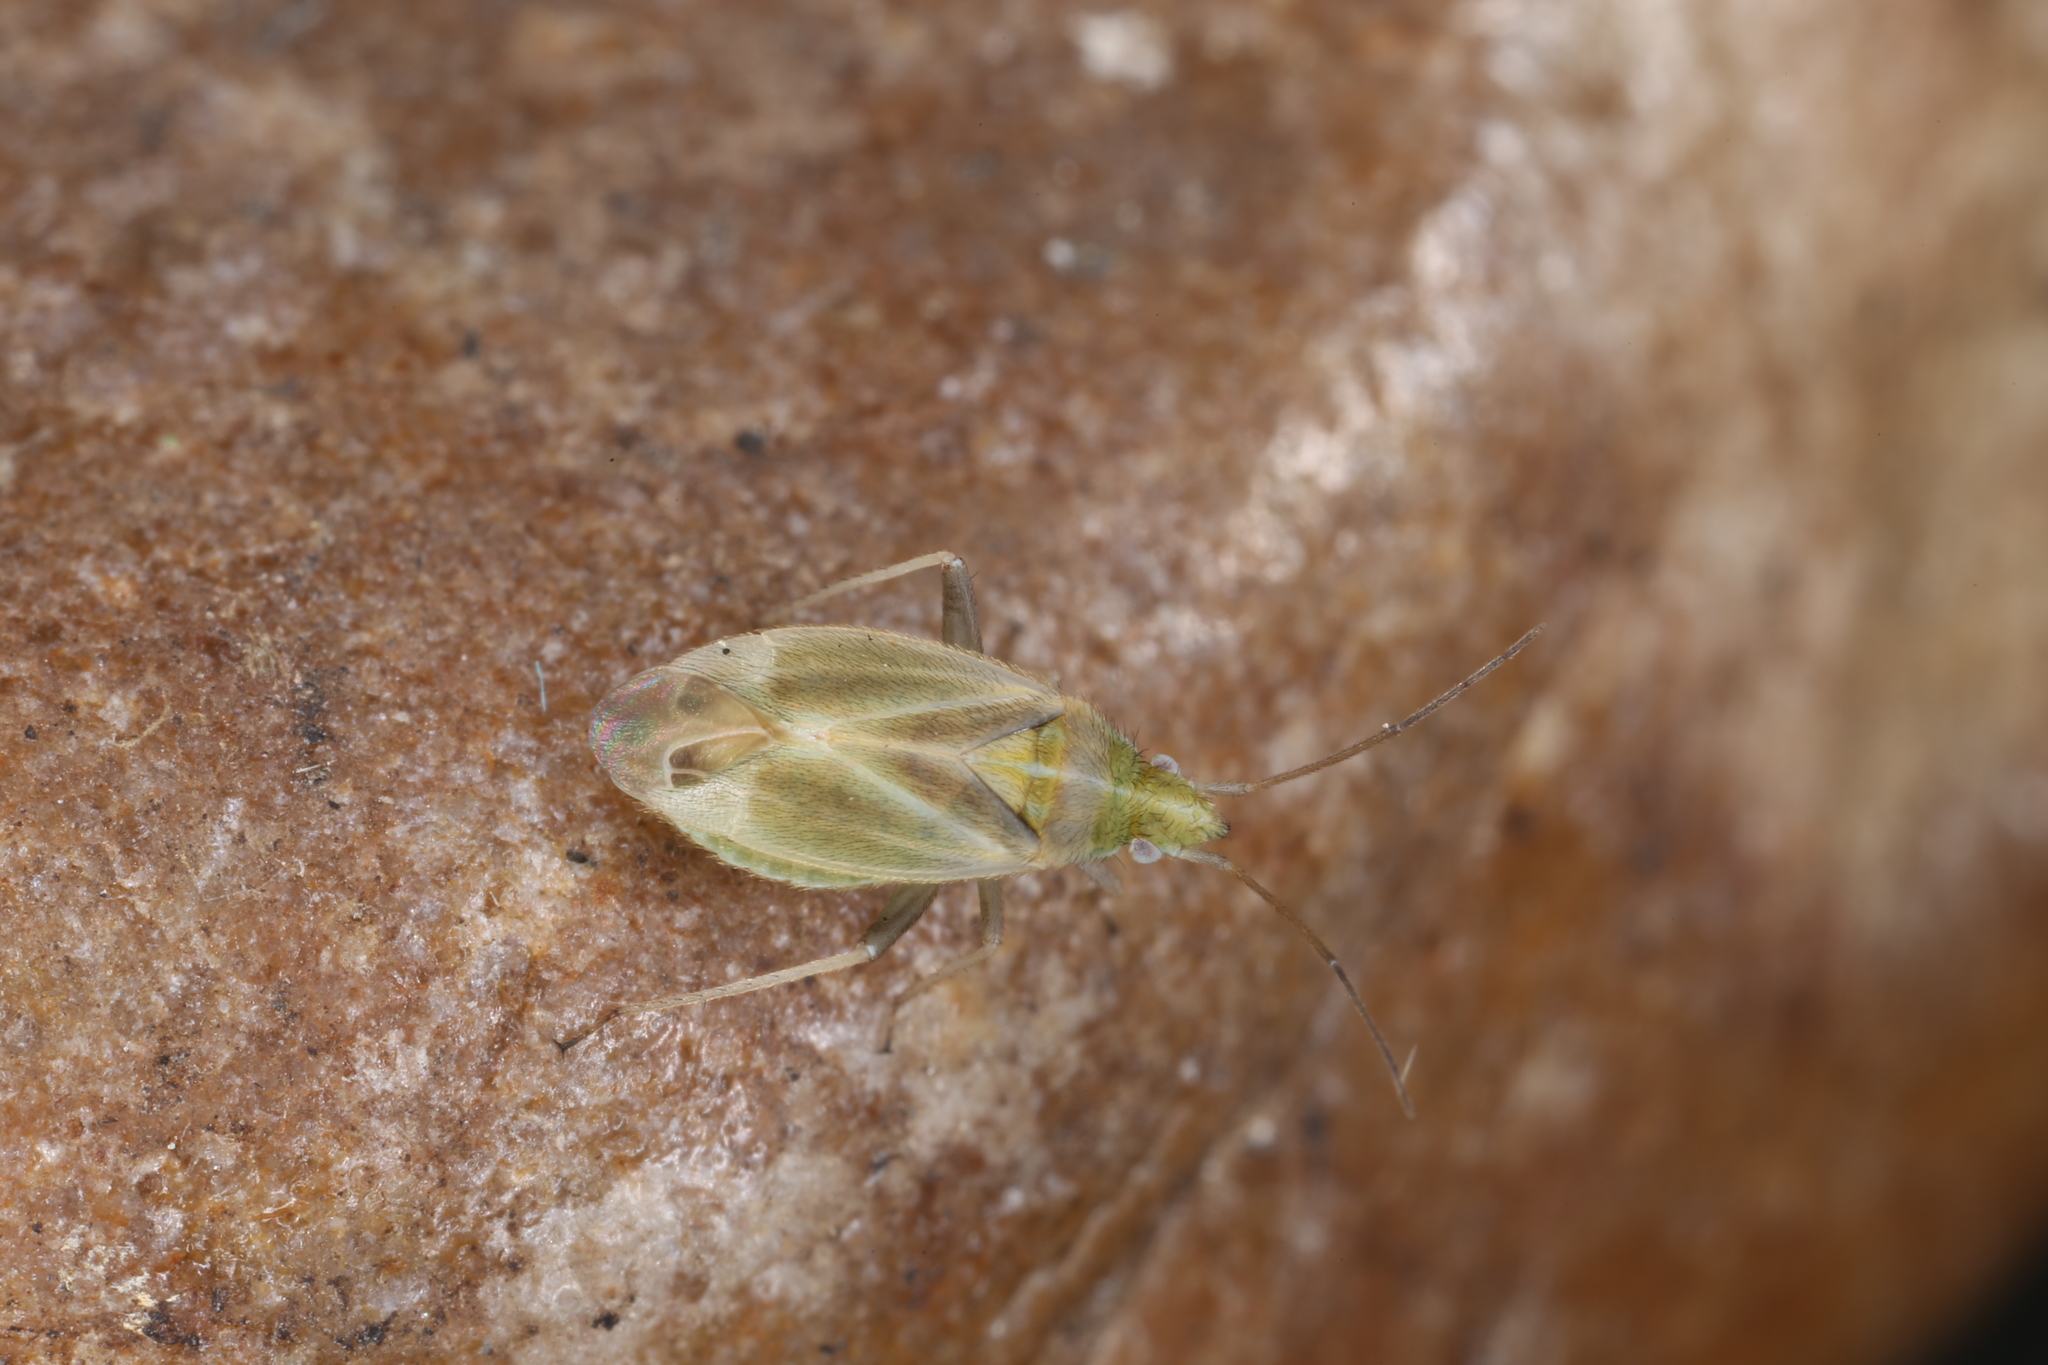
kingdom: Animalia
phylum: Arthropoda
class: Insecta
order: Hemiptera
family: Miridae
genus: Amblytylus
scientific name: Amblytylus nasutus
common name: Plant bug
